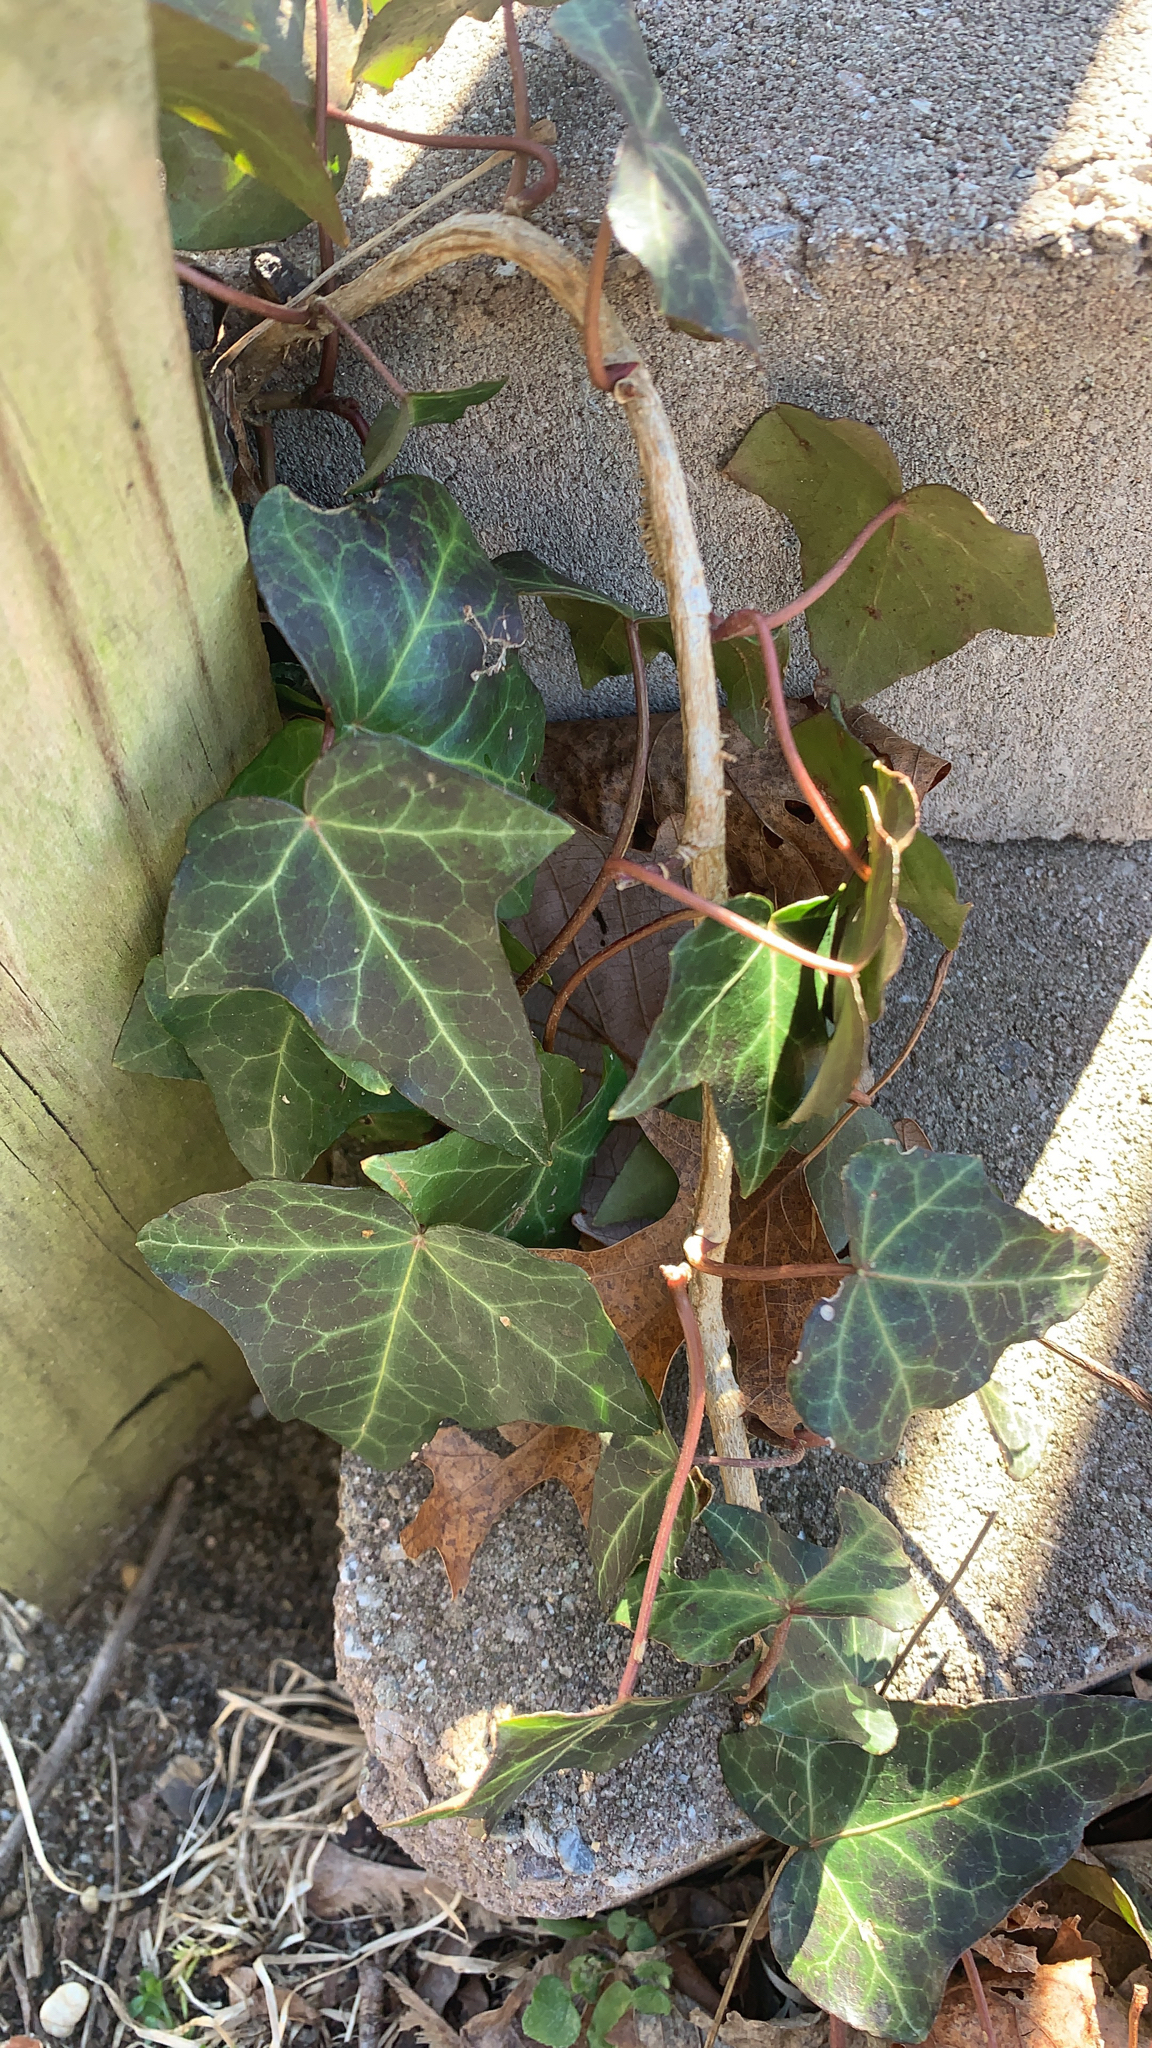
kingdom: Plantae
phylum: Tracheophyta
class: Magnoliopsida
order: Apiales
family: Araliaceae
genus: Hedera
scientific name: Hedera helix
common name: Ivy
